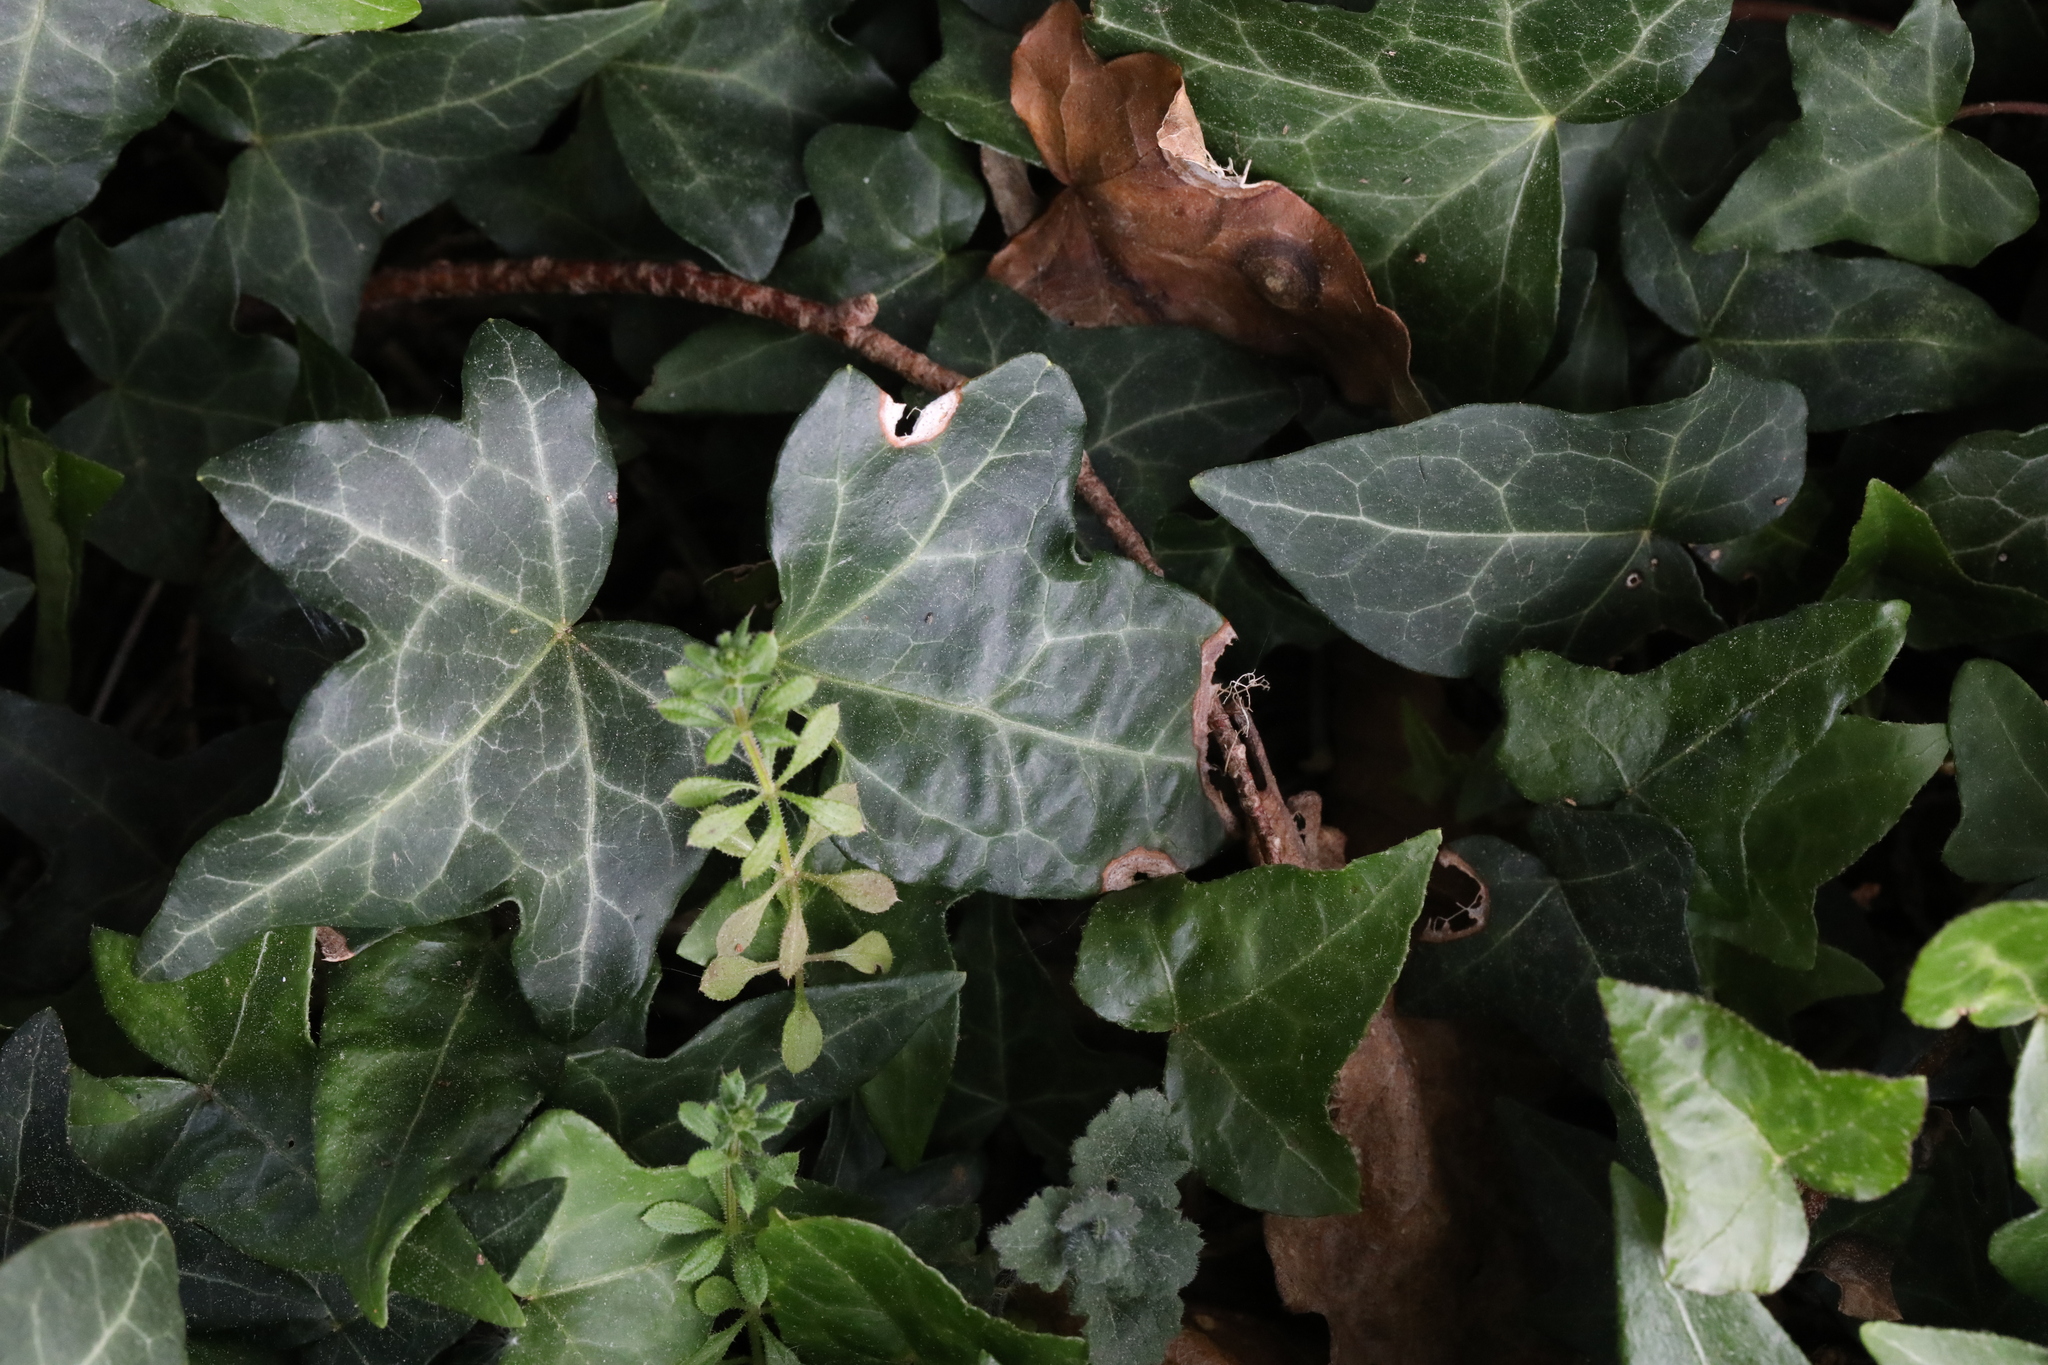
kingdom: Plantae
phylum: Tracheophyta
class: Magnoliopsida
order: Apiales
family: Araliaceae
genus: Hedera
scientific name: Hedera helix
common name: Ivy
